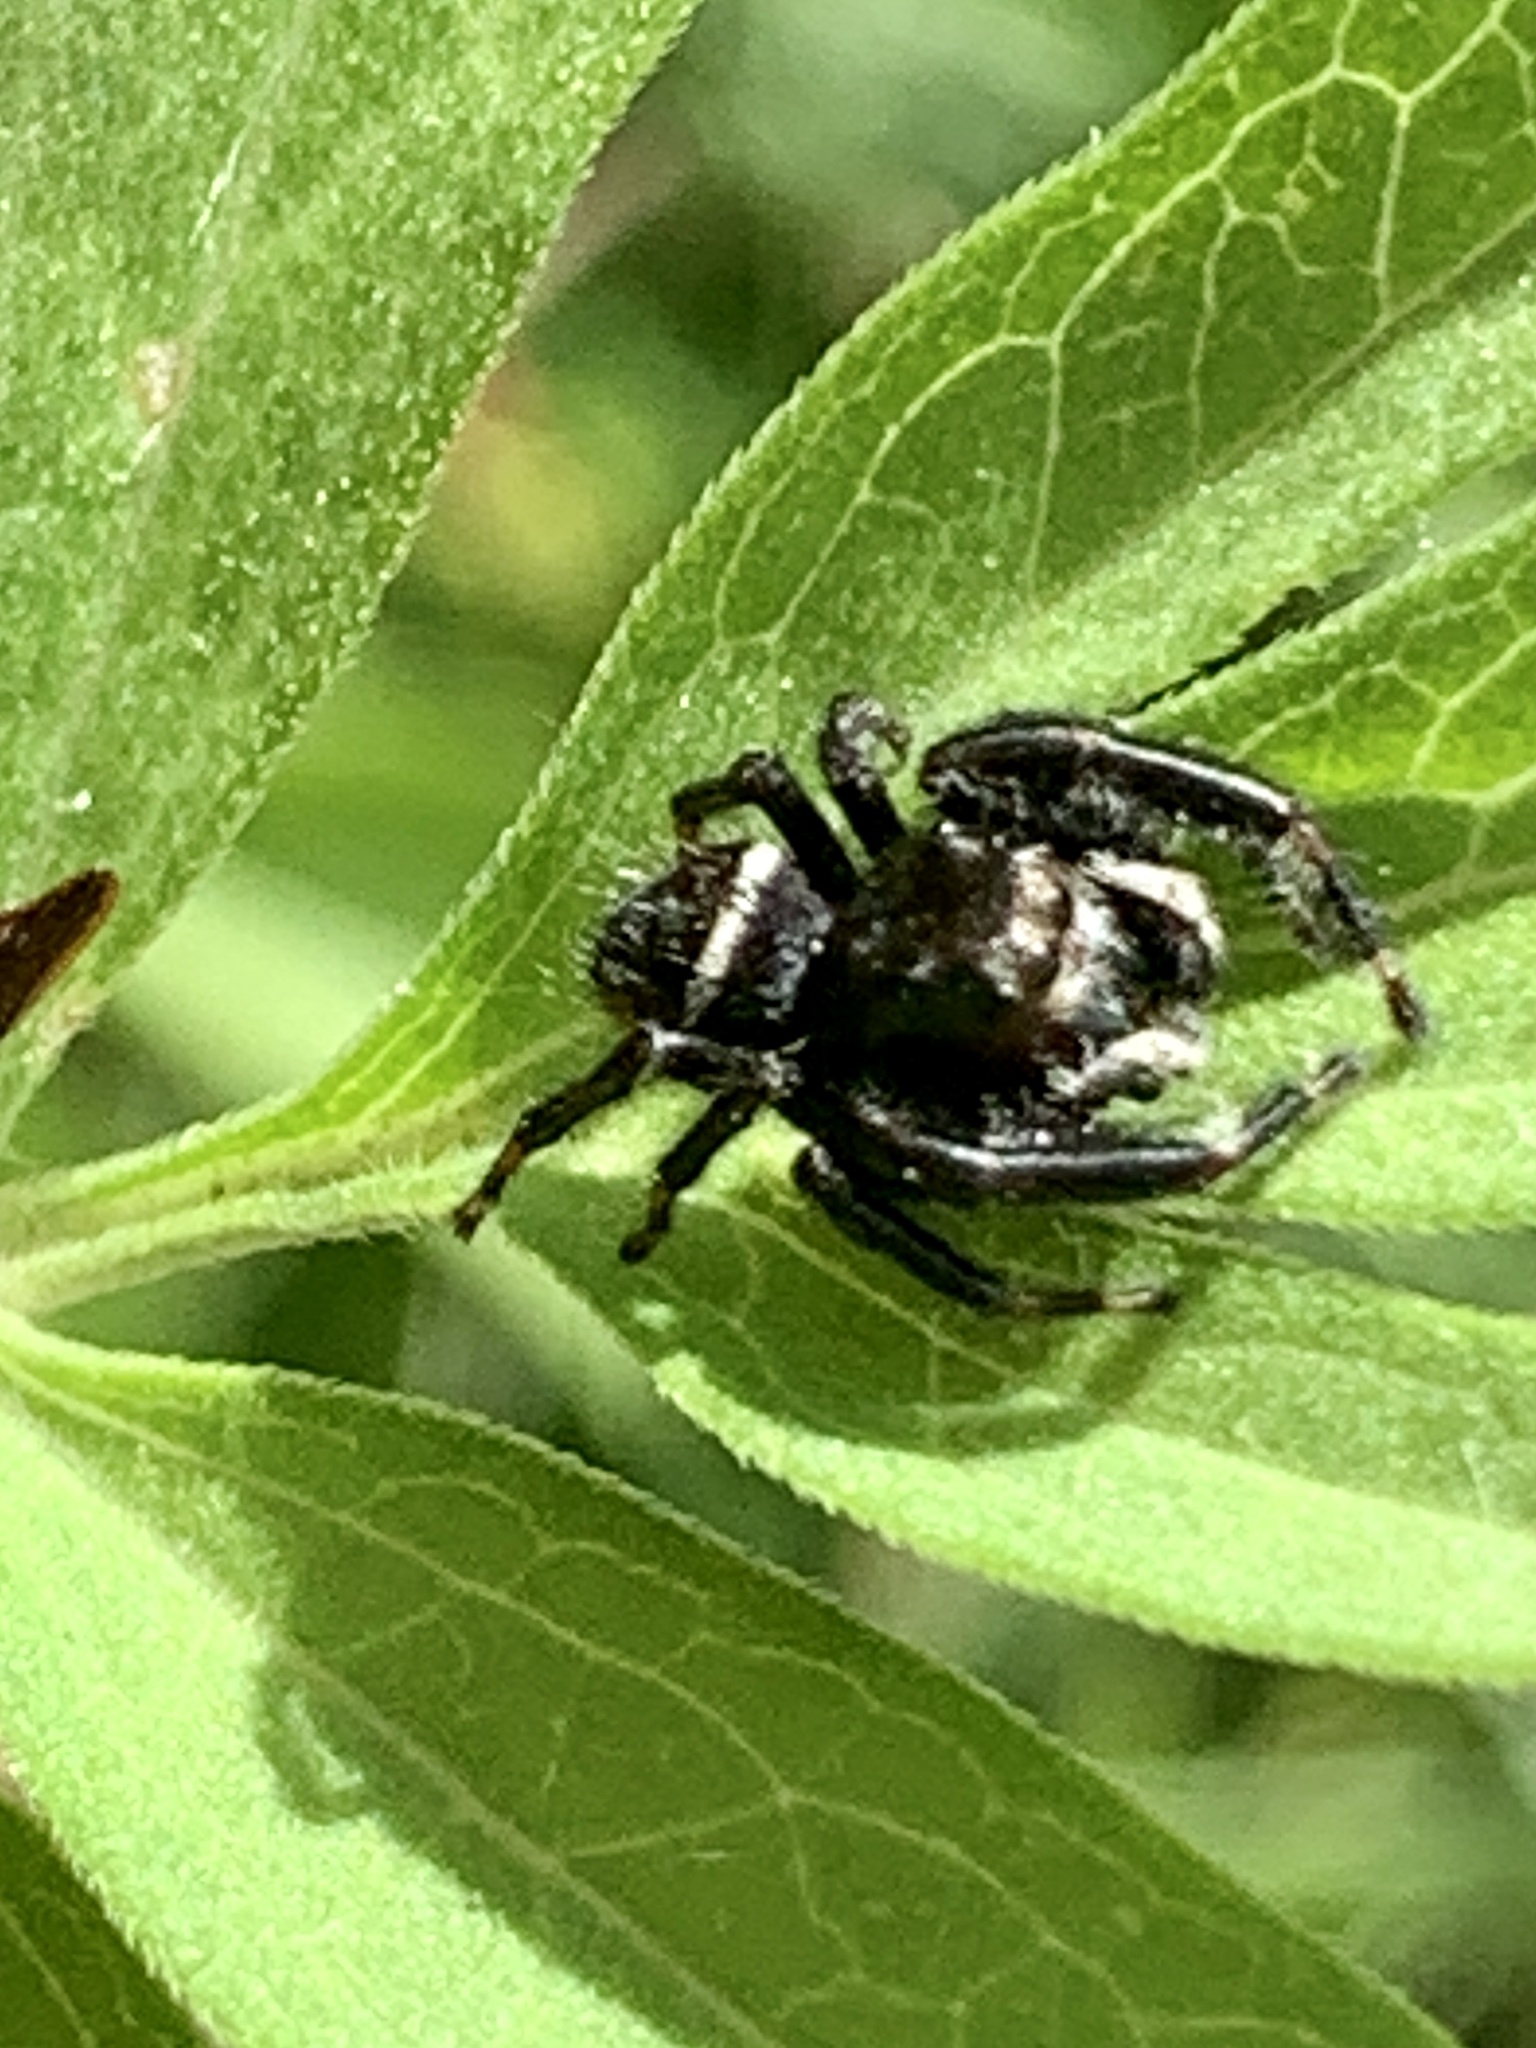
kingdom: Animalia
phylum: Arthropoda
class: Arachnida
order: Araneae
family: Salticidae
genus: Phidippus
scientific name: Phidippus clarus
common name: Brilliant jumping spider
